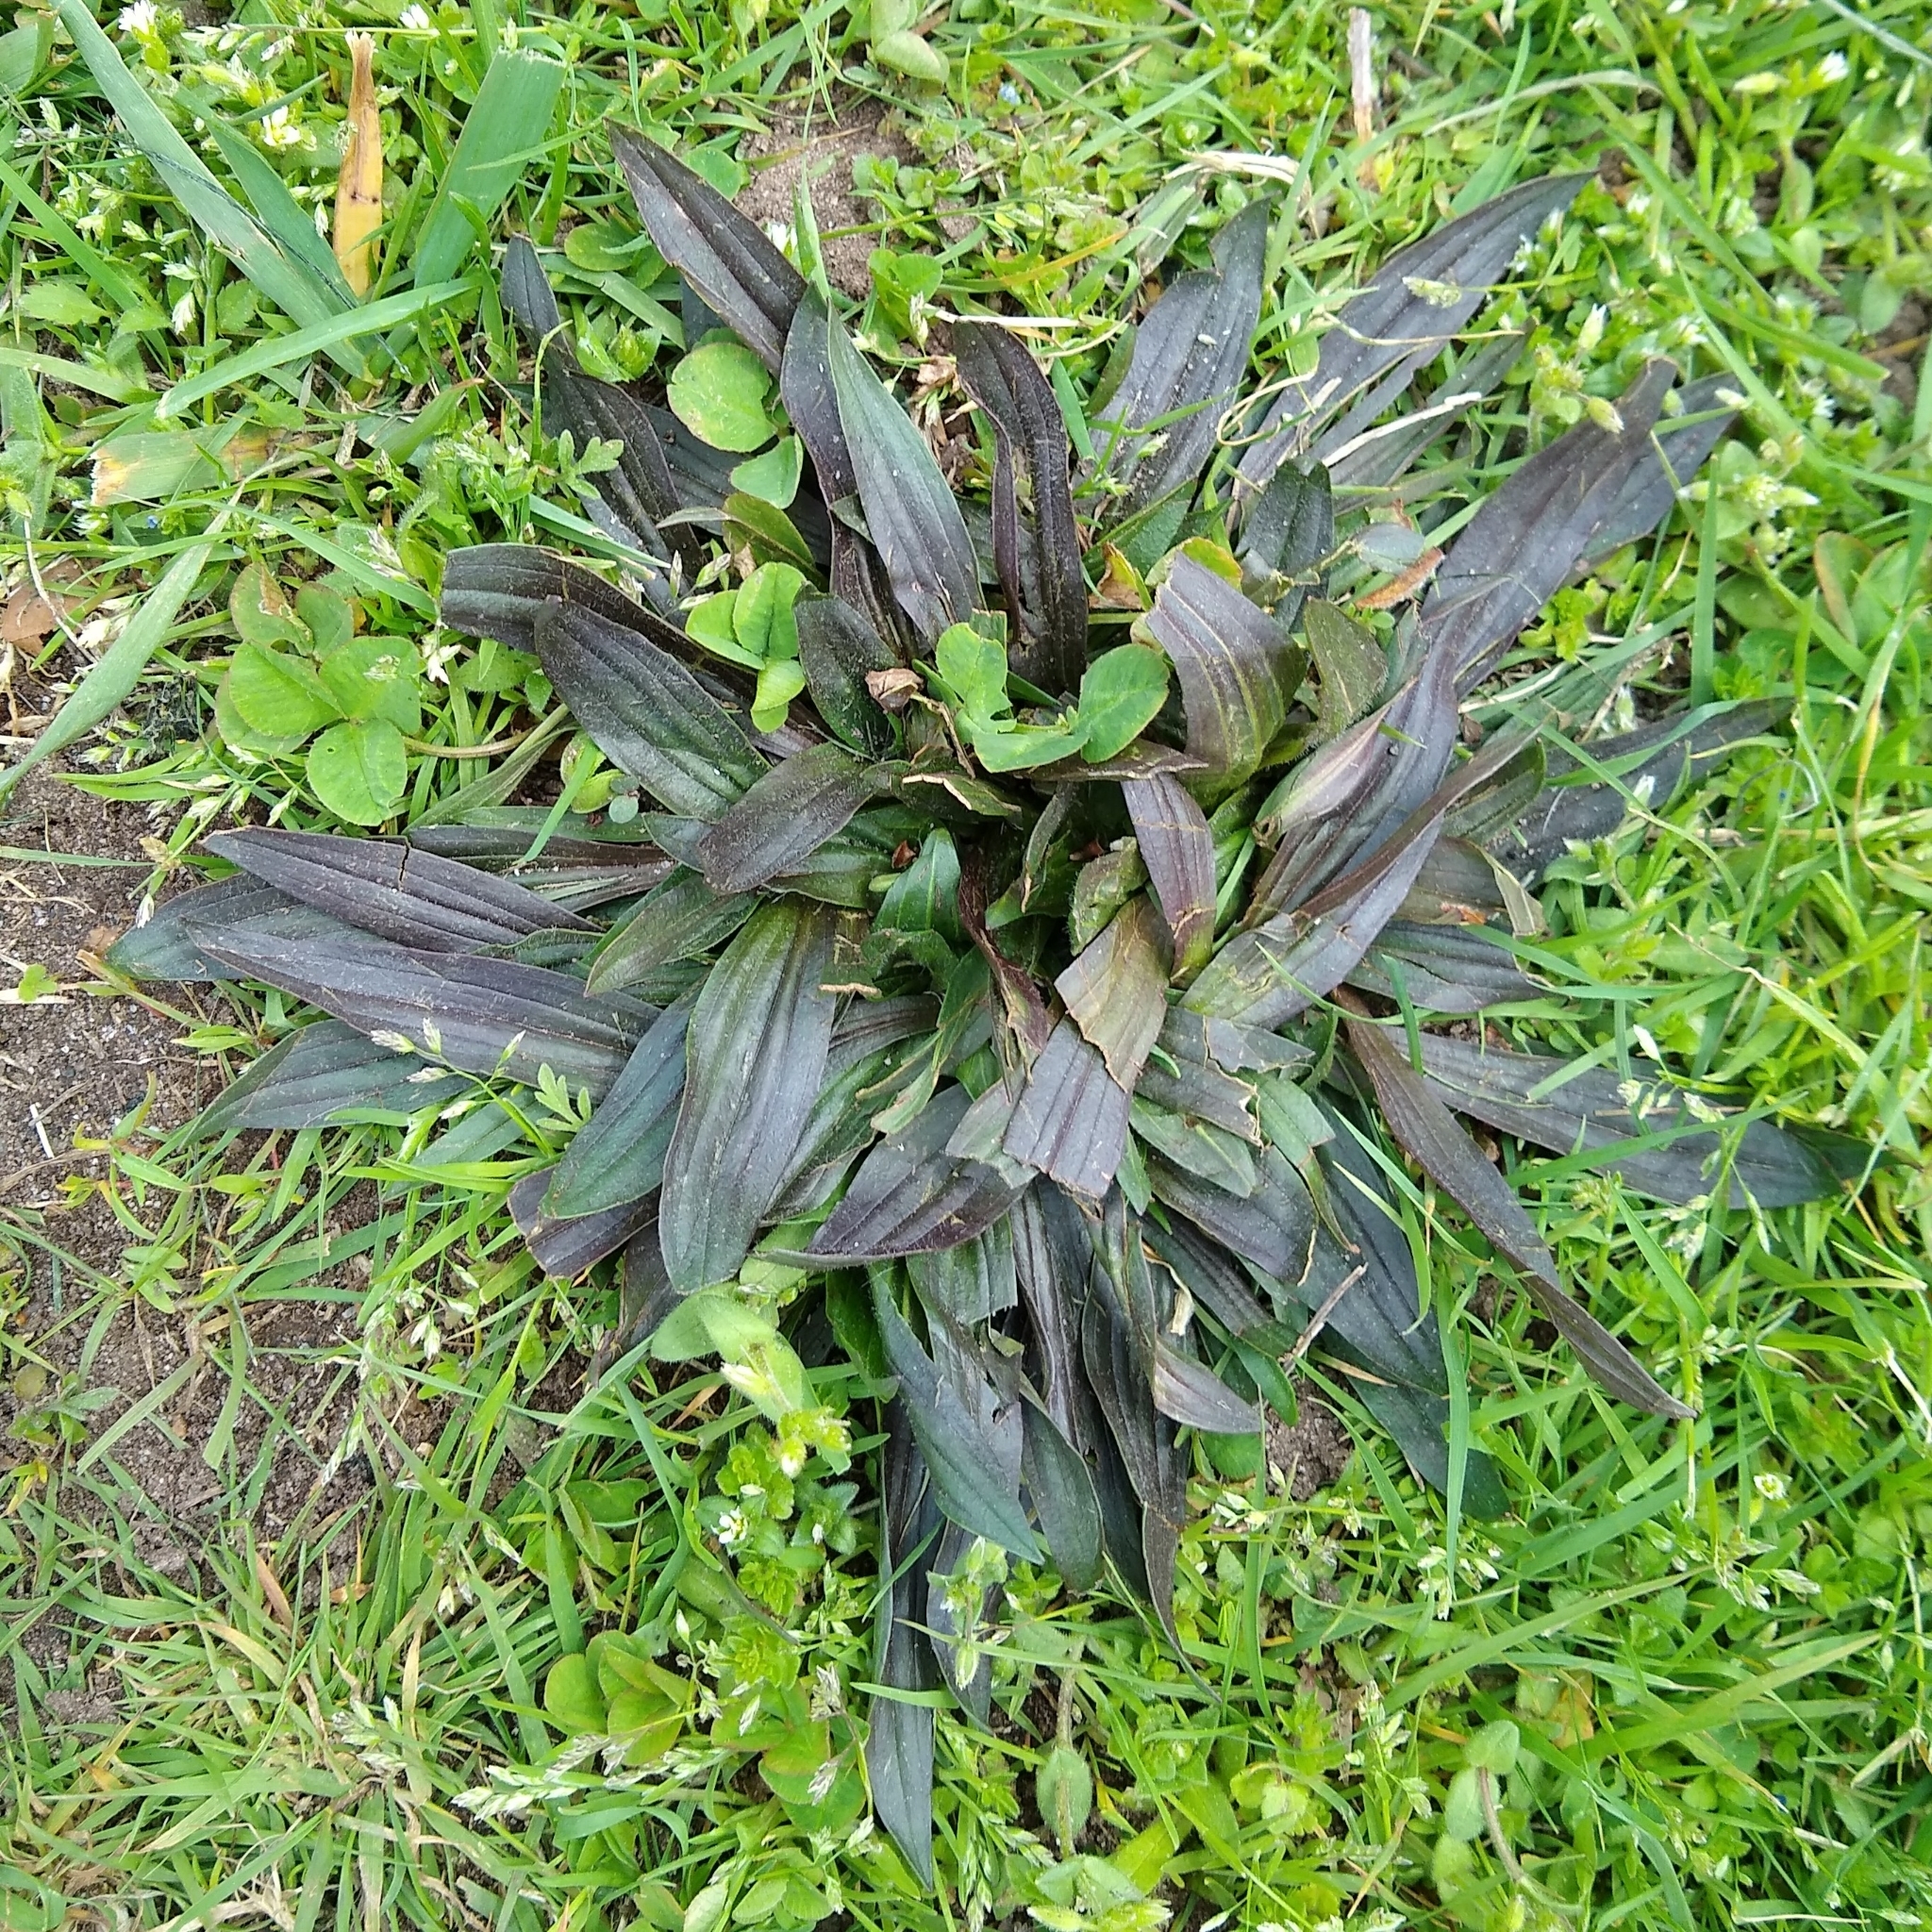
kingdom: Plantae
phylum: Tracheophyta
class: Magnoliopsida
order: Lamiales
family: Plantaginaceae
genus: Plantago
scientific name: Plantago lanceolata
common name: Ribwort plantain
